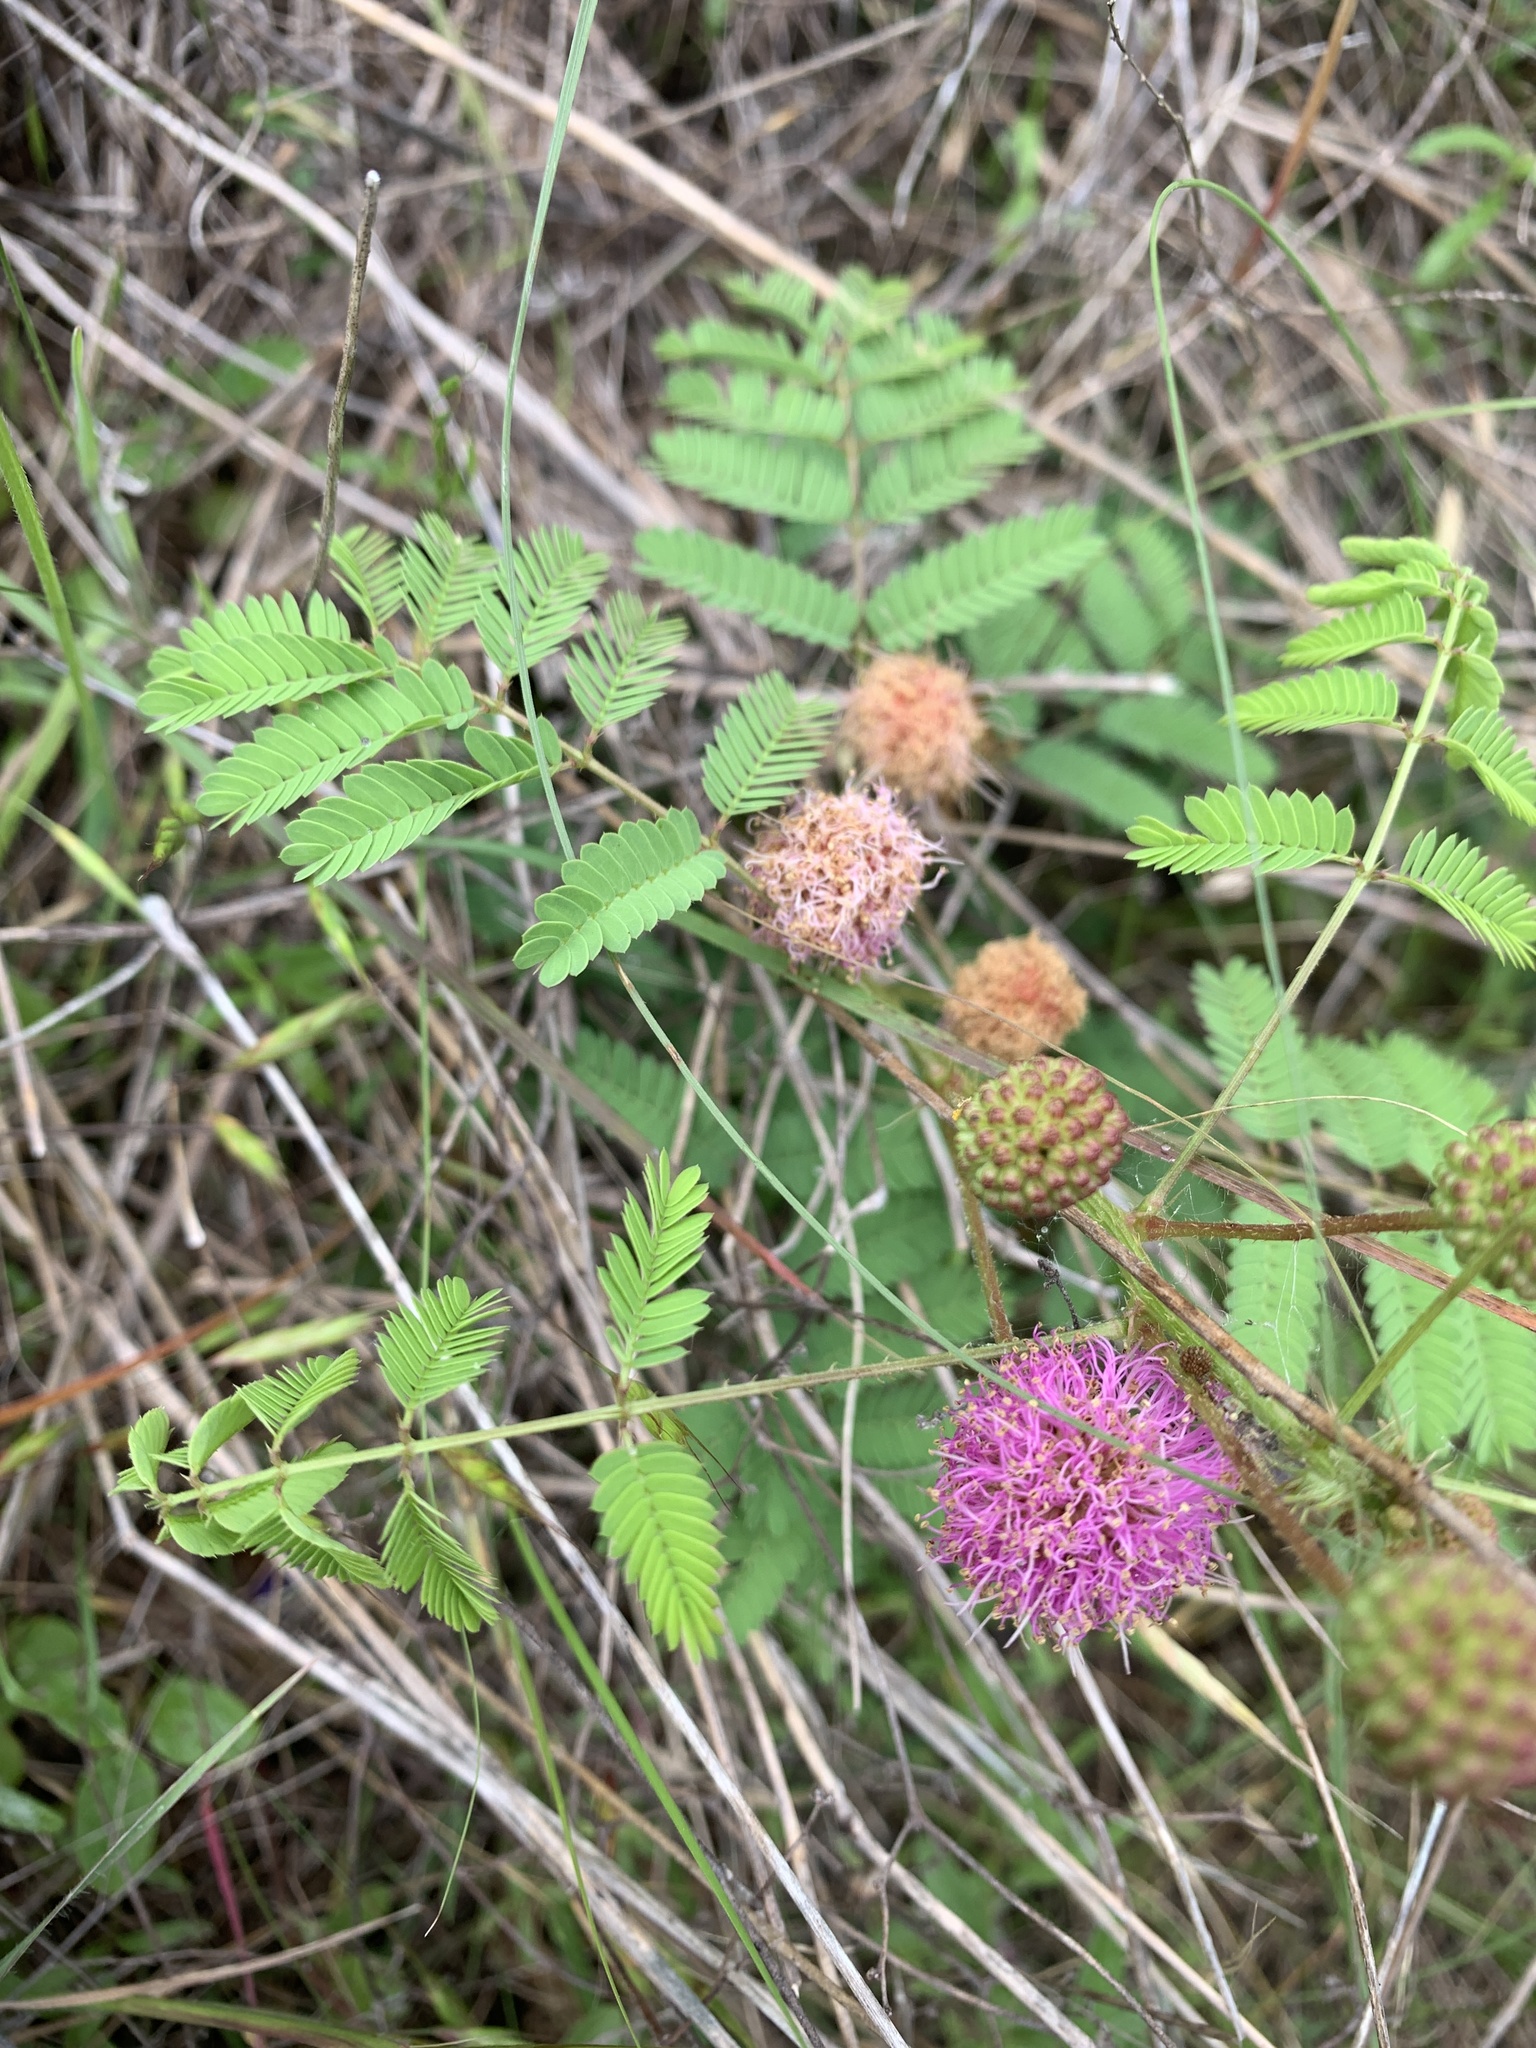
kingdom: Plantae
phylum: Tracheophyta
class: Magnoliopsida
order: Fabales
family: Fabaceae
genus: Mimosa
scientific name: Mimosa quadrivalvis
